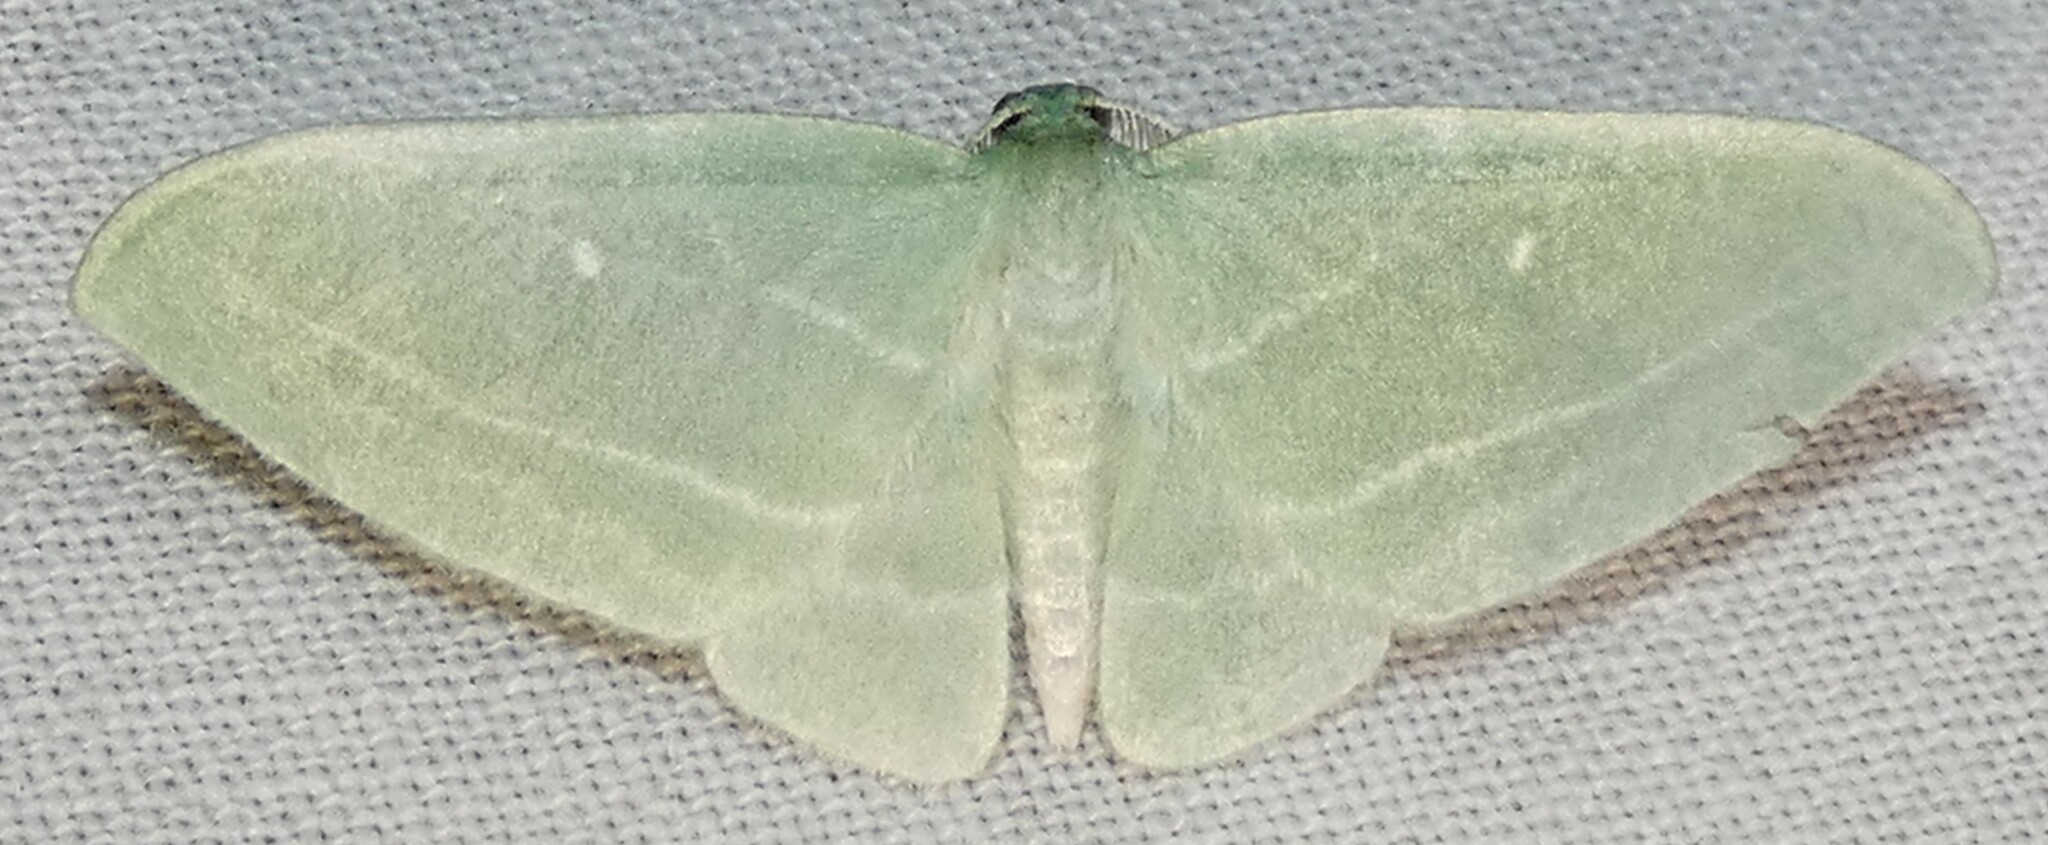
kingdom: Animalia
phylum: Arthropoda
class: Insecta
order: Lepidoptera
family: Geometridae
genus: Dyspteris
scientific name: Dyspteris abortivaria
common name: Bad-wing
